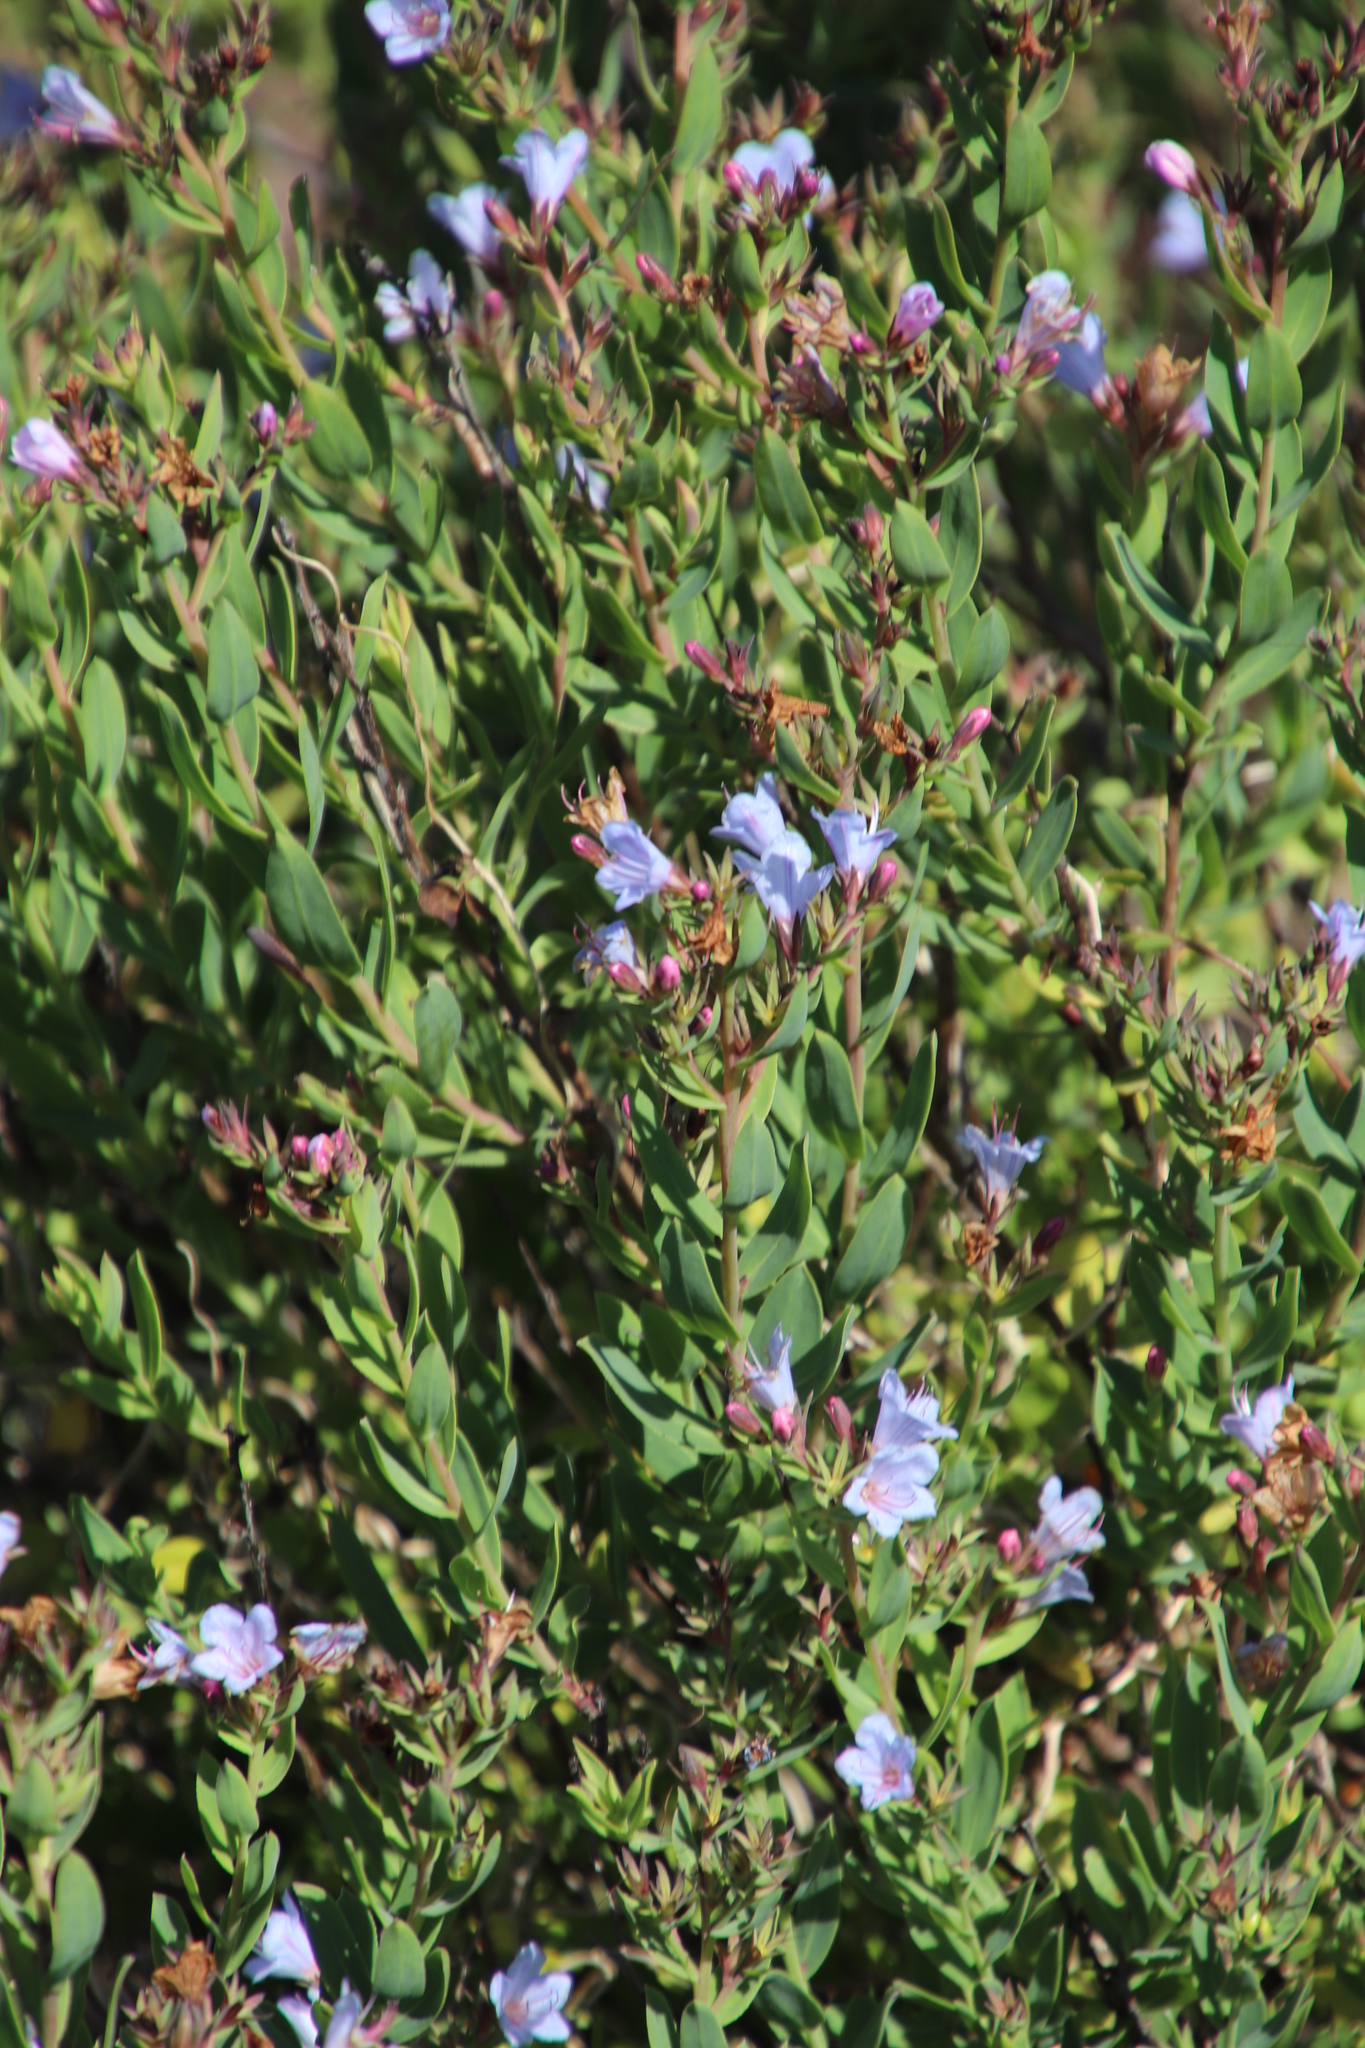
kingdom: Plantae
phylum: Tracheophyta
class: Magnoliopsida
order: Boraginales
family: Boraginaceae
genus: Lobostemon
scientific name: Lobostemon glaucophyllus
